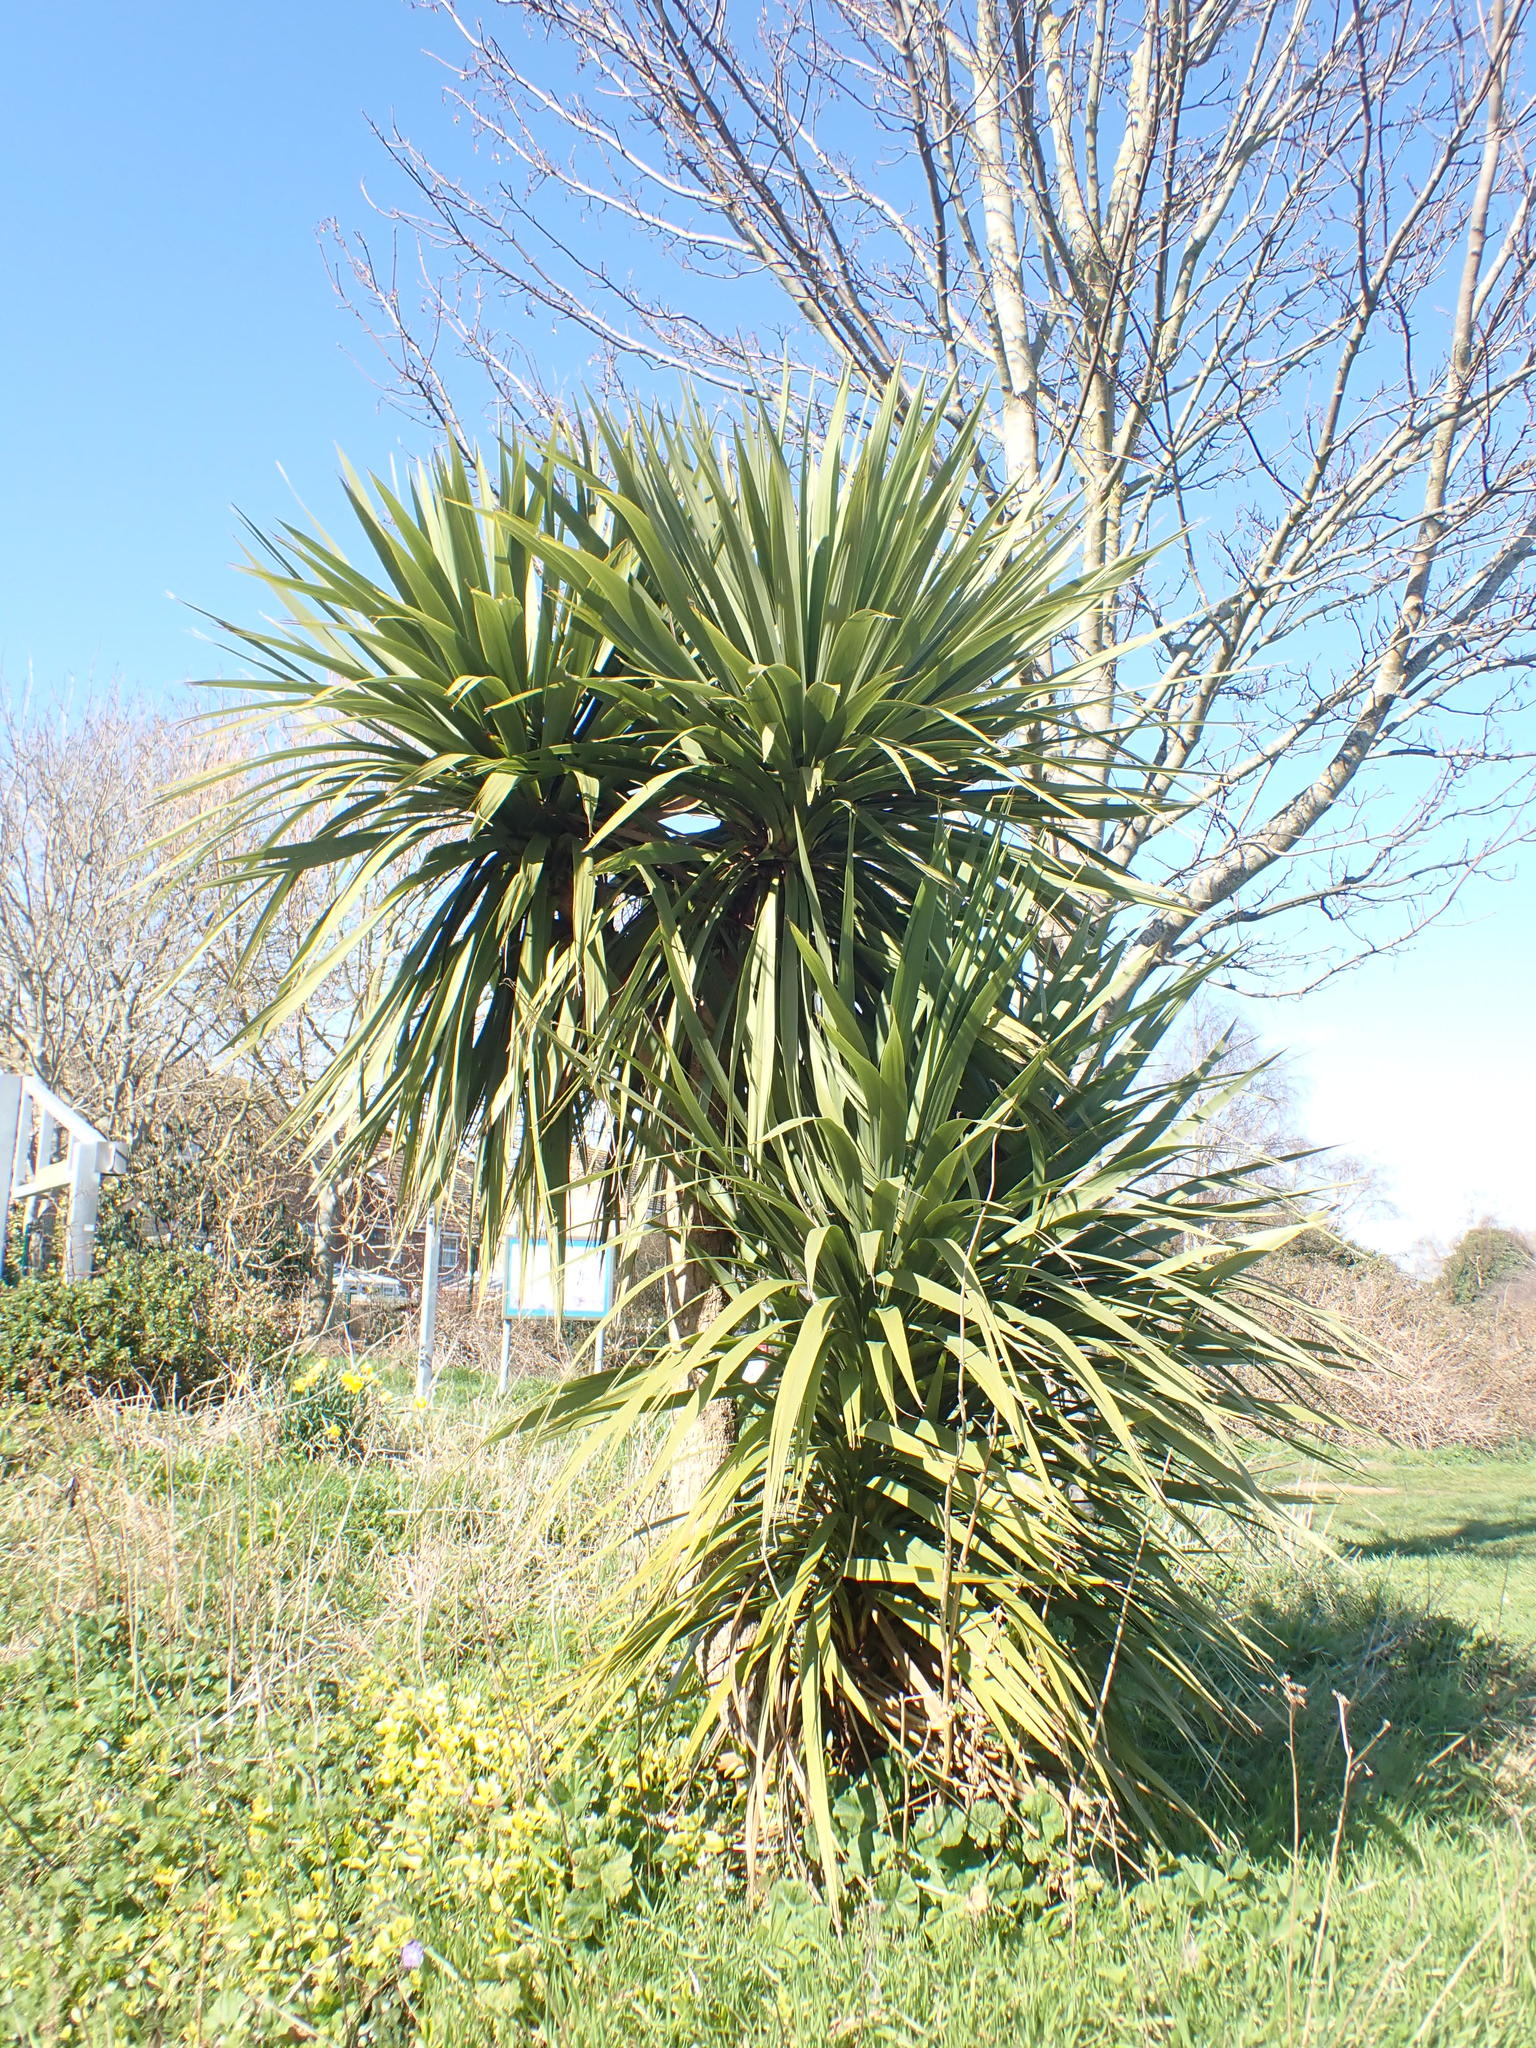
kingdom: Plantae
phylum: Tracheophyta
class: Liliopsida
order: Asparagales
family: Asparagaceae
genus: Cordyline
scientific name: Cordyline australis
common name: Cabbage-palm
